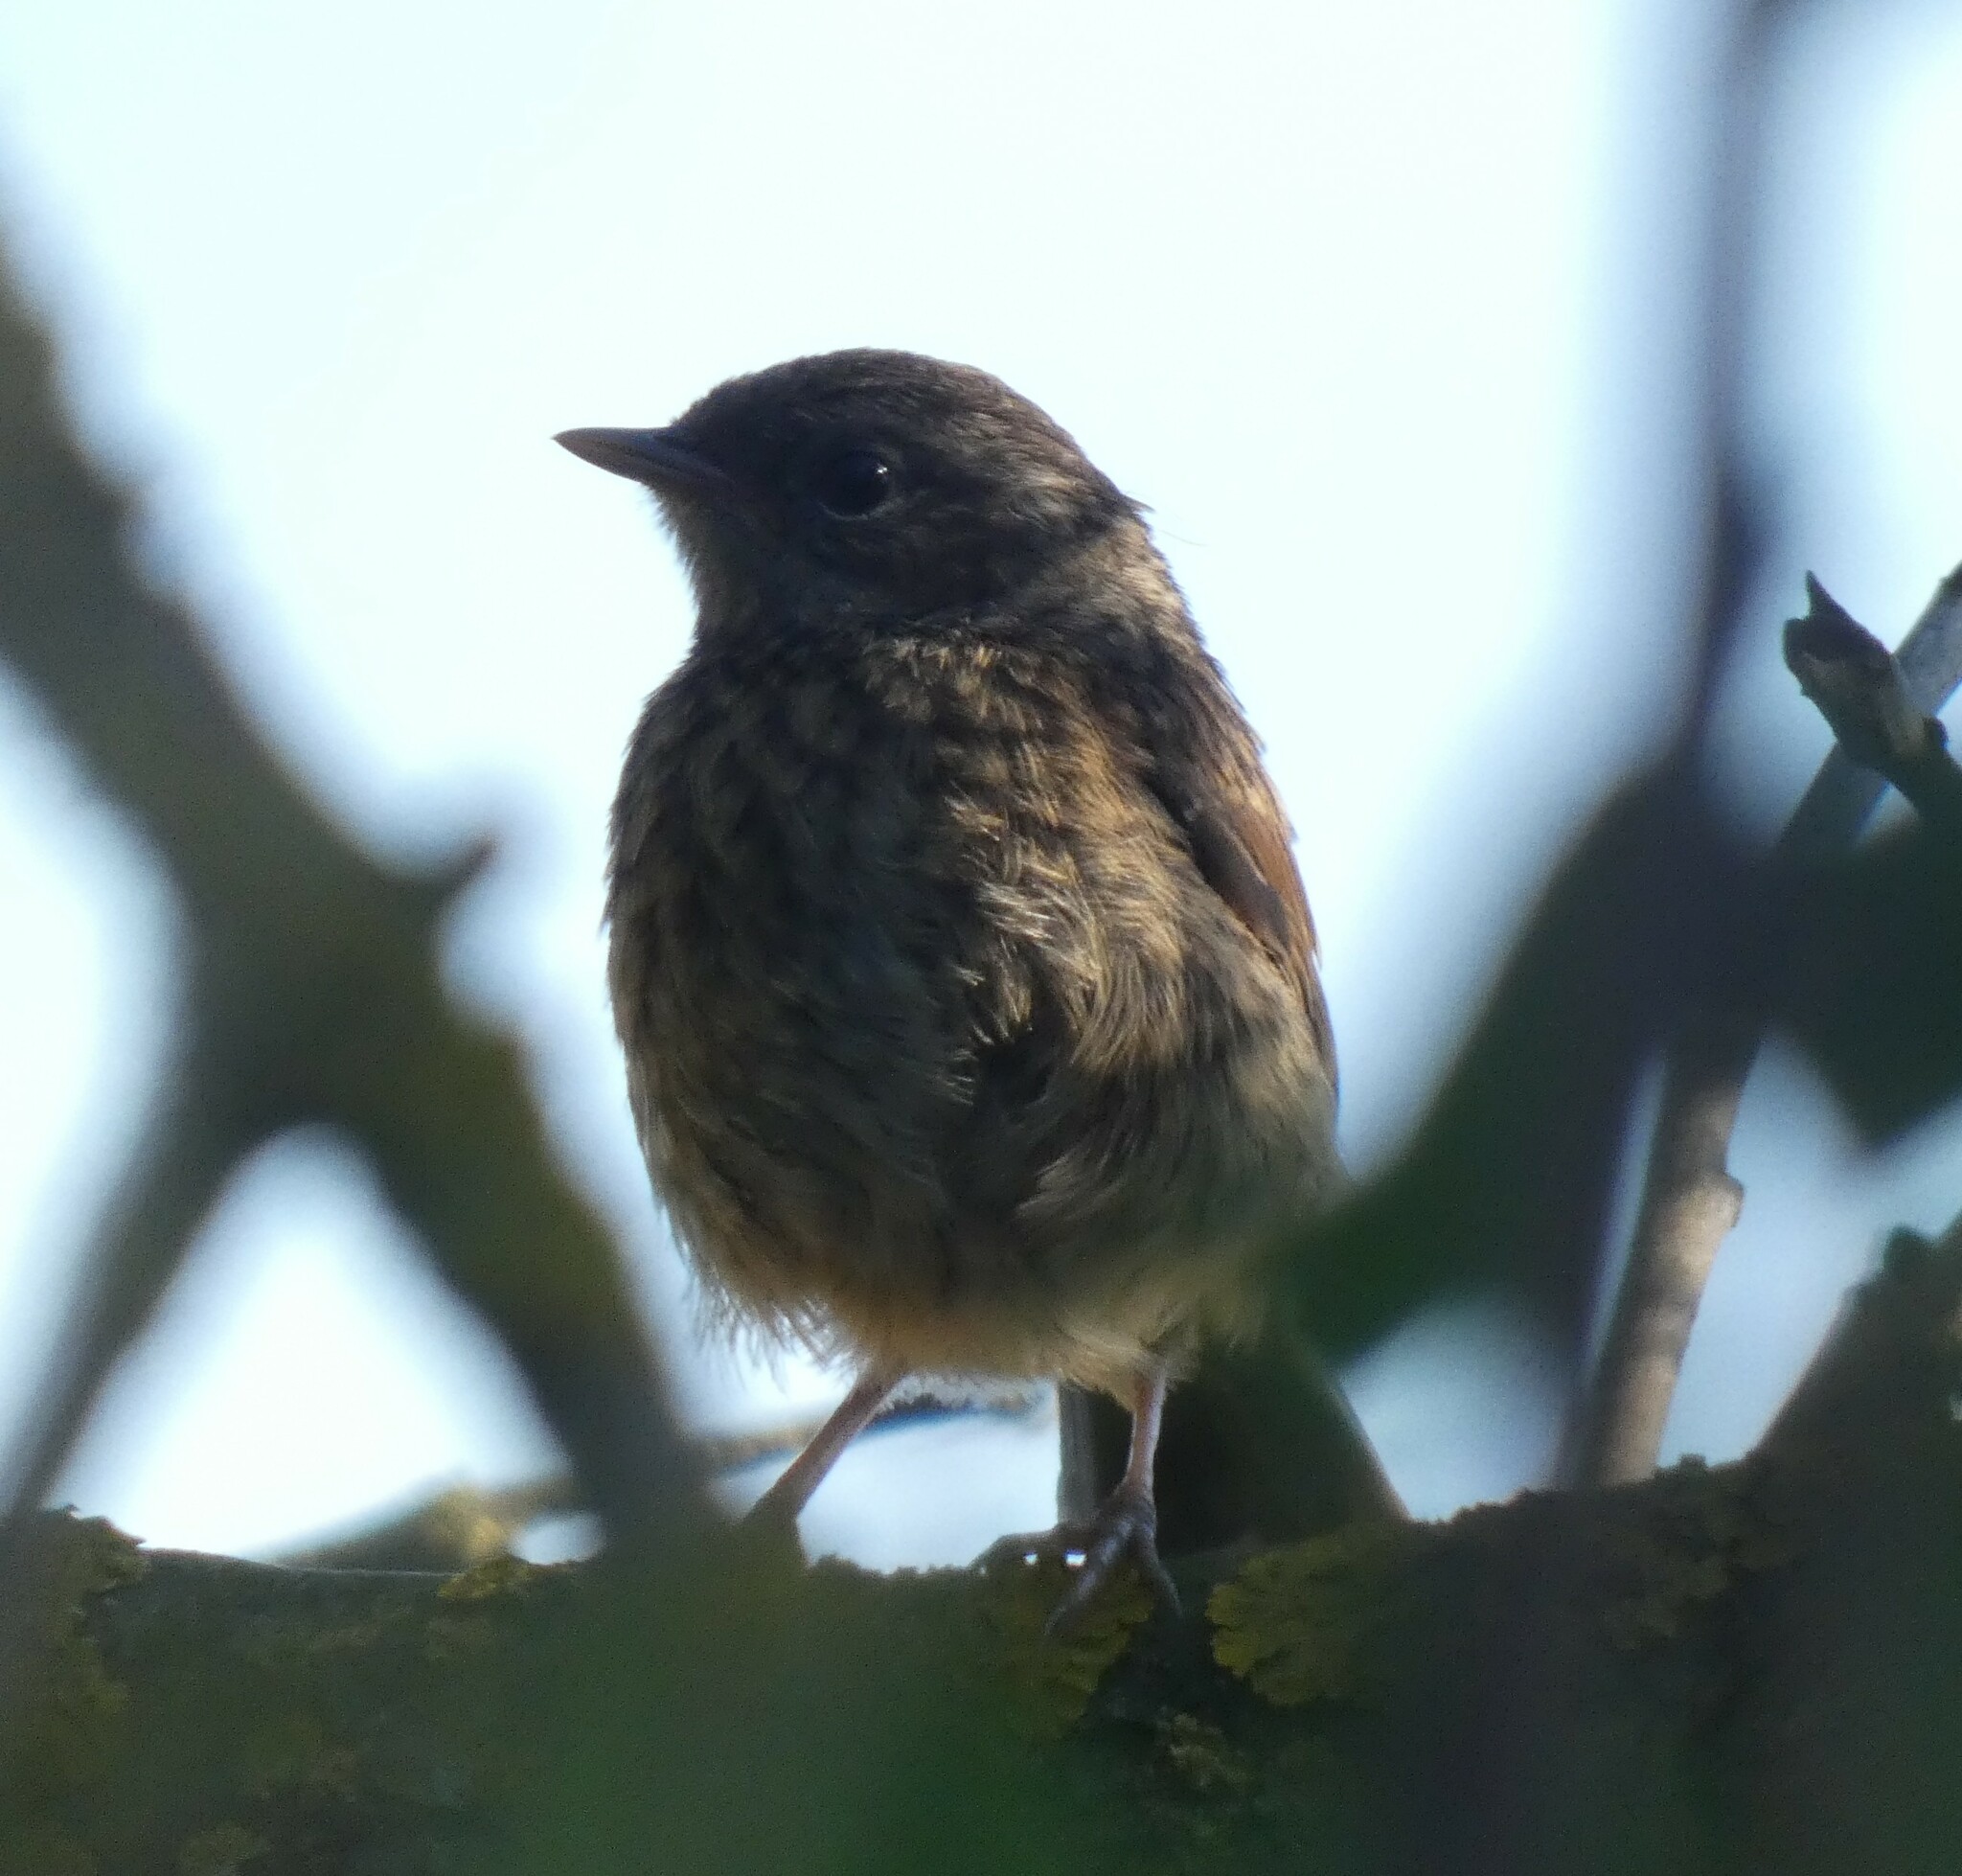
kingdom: Animalia
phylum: Chordata
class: Aves
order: Passeriformes
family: Prunellidae
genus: Prunella
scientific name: Prunella modularis
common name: Dunnock
